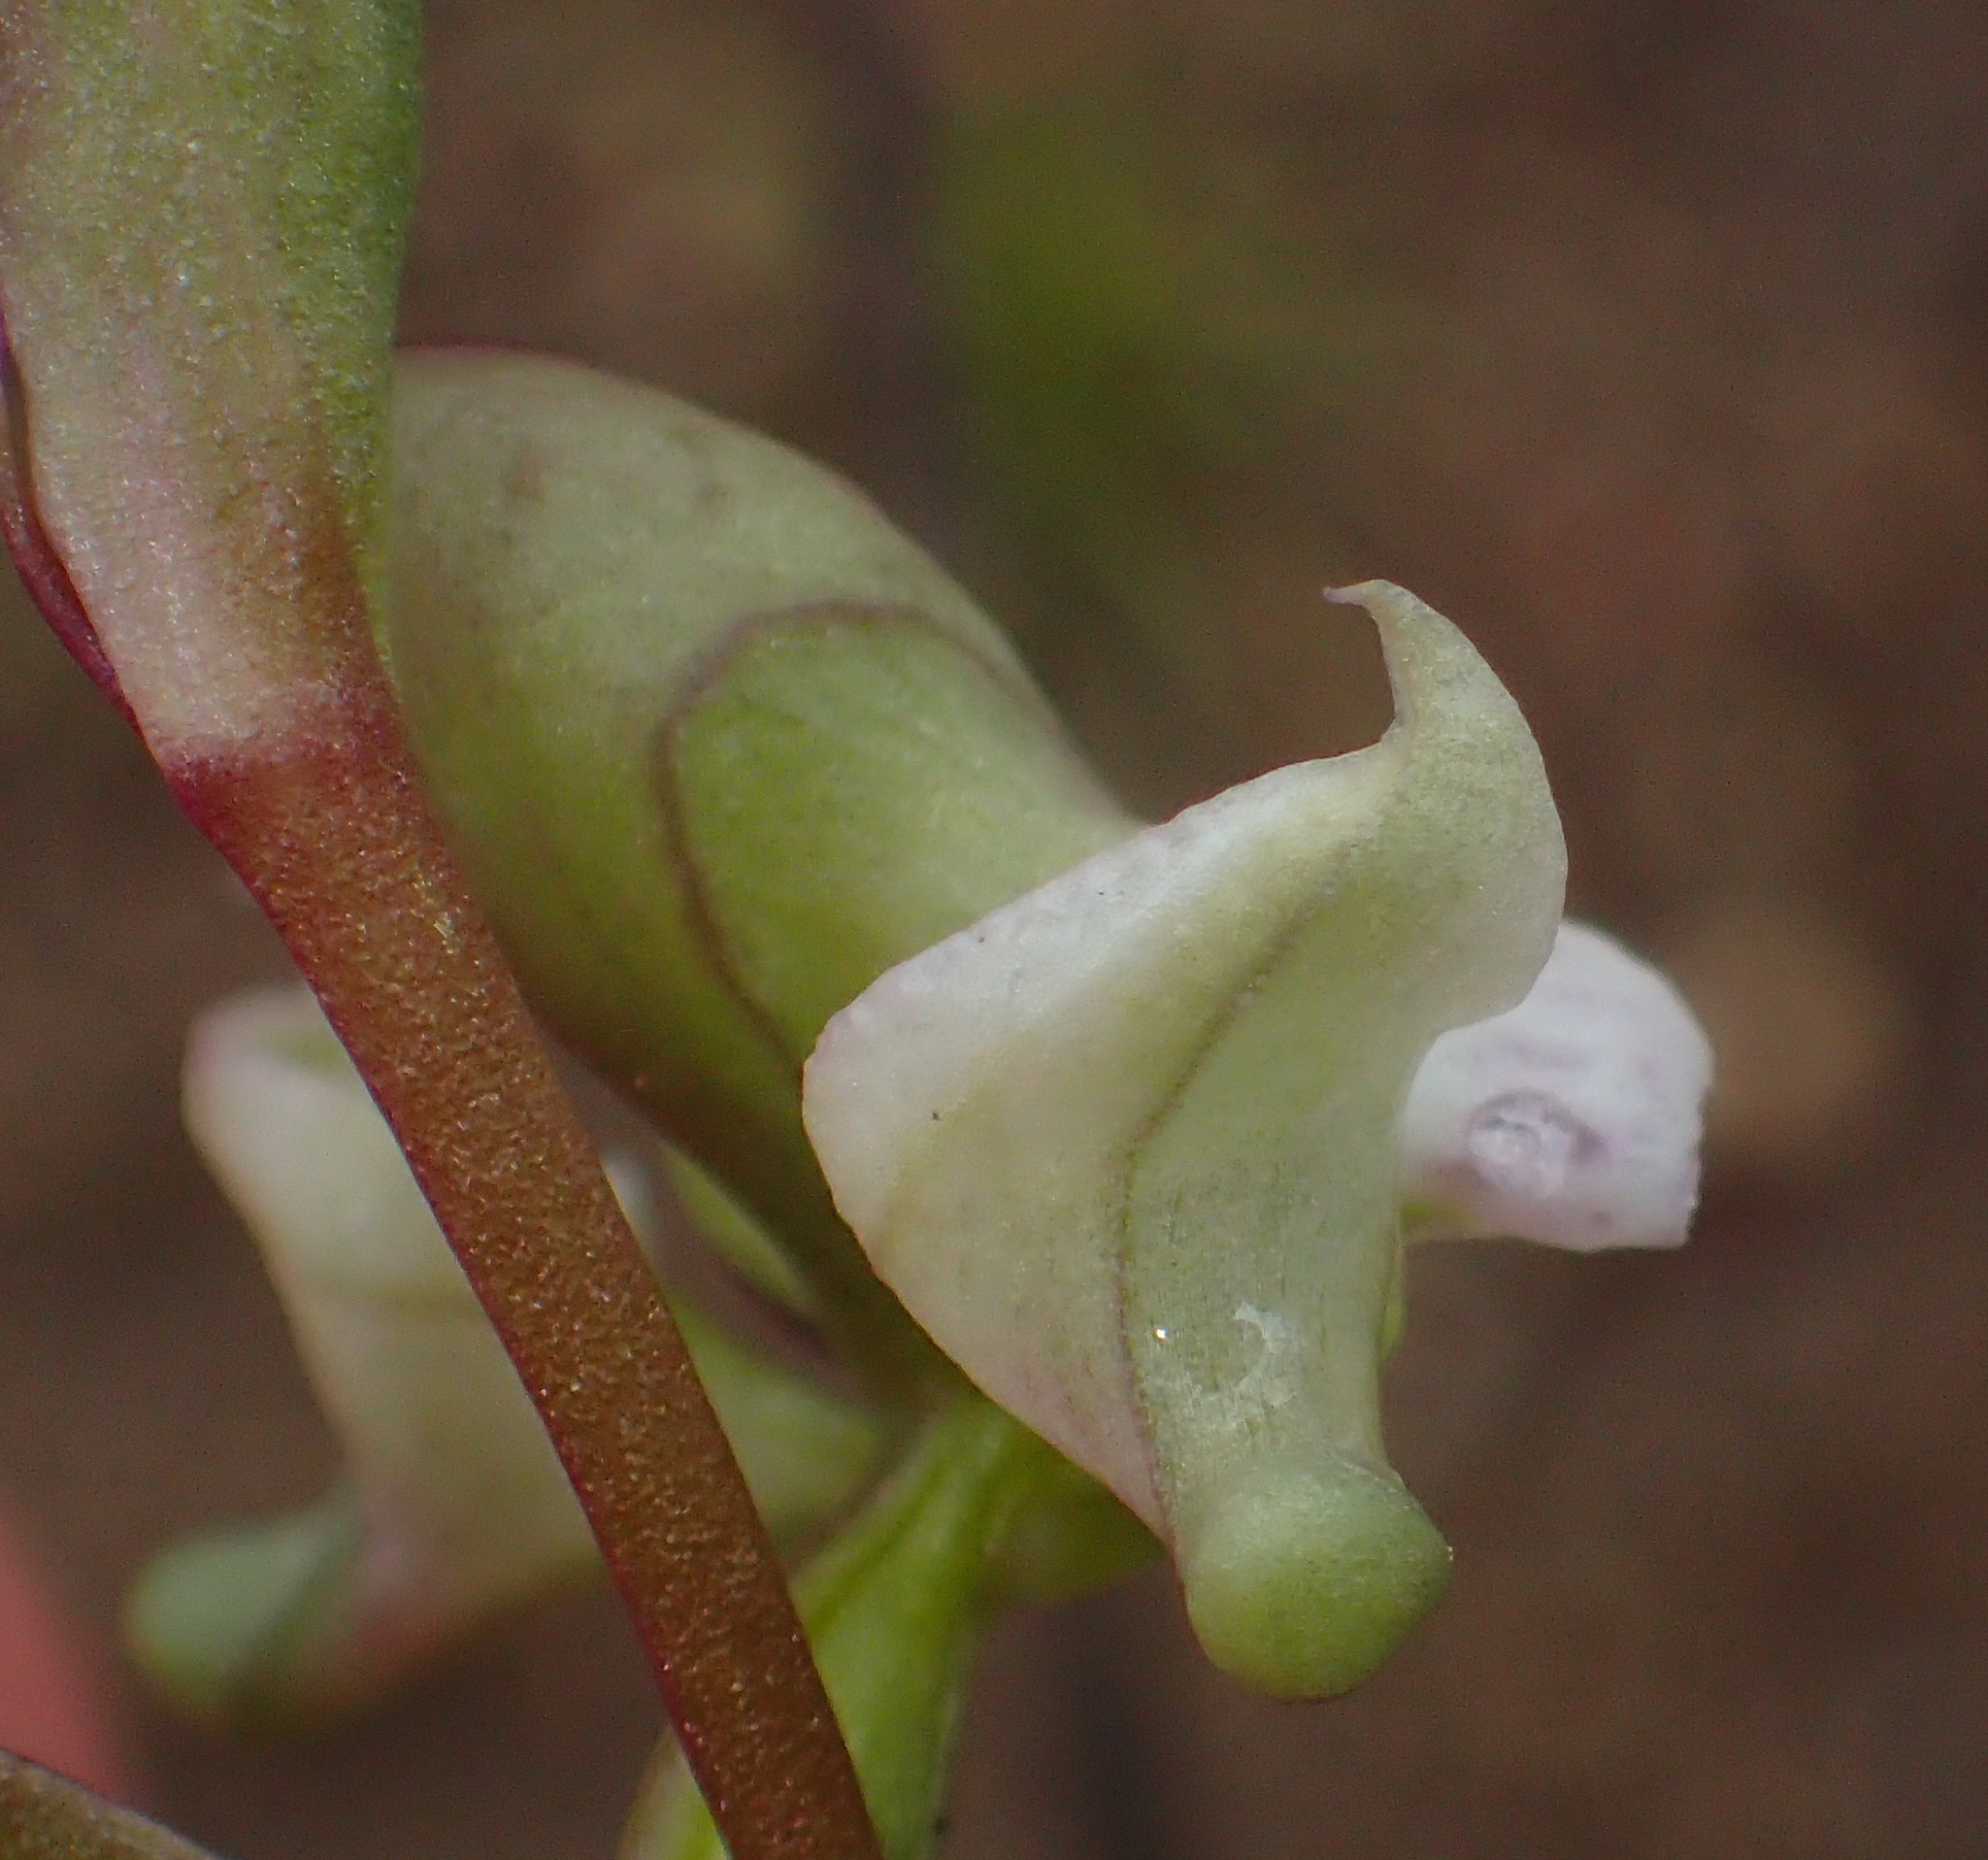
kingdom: Plantae
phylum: Tracheophyta
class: Liliopsida
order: Asparagales
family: Orchidaceae
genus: Disperis
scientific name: Disperis circumflexa
